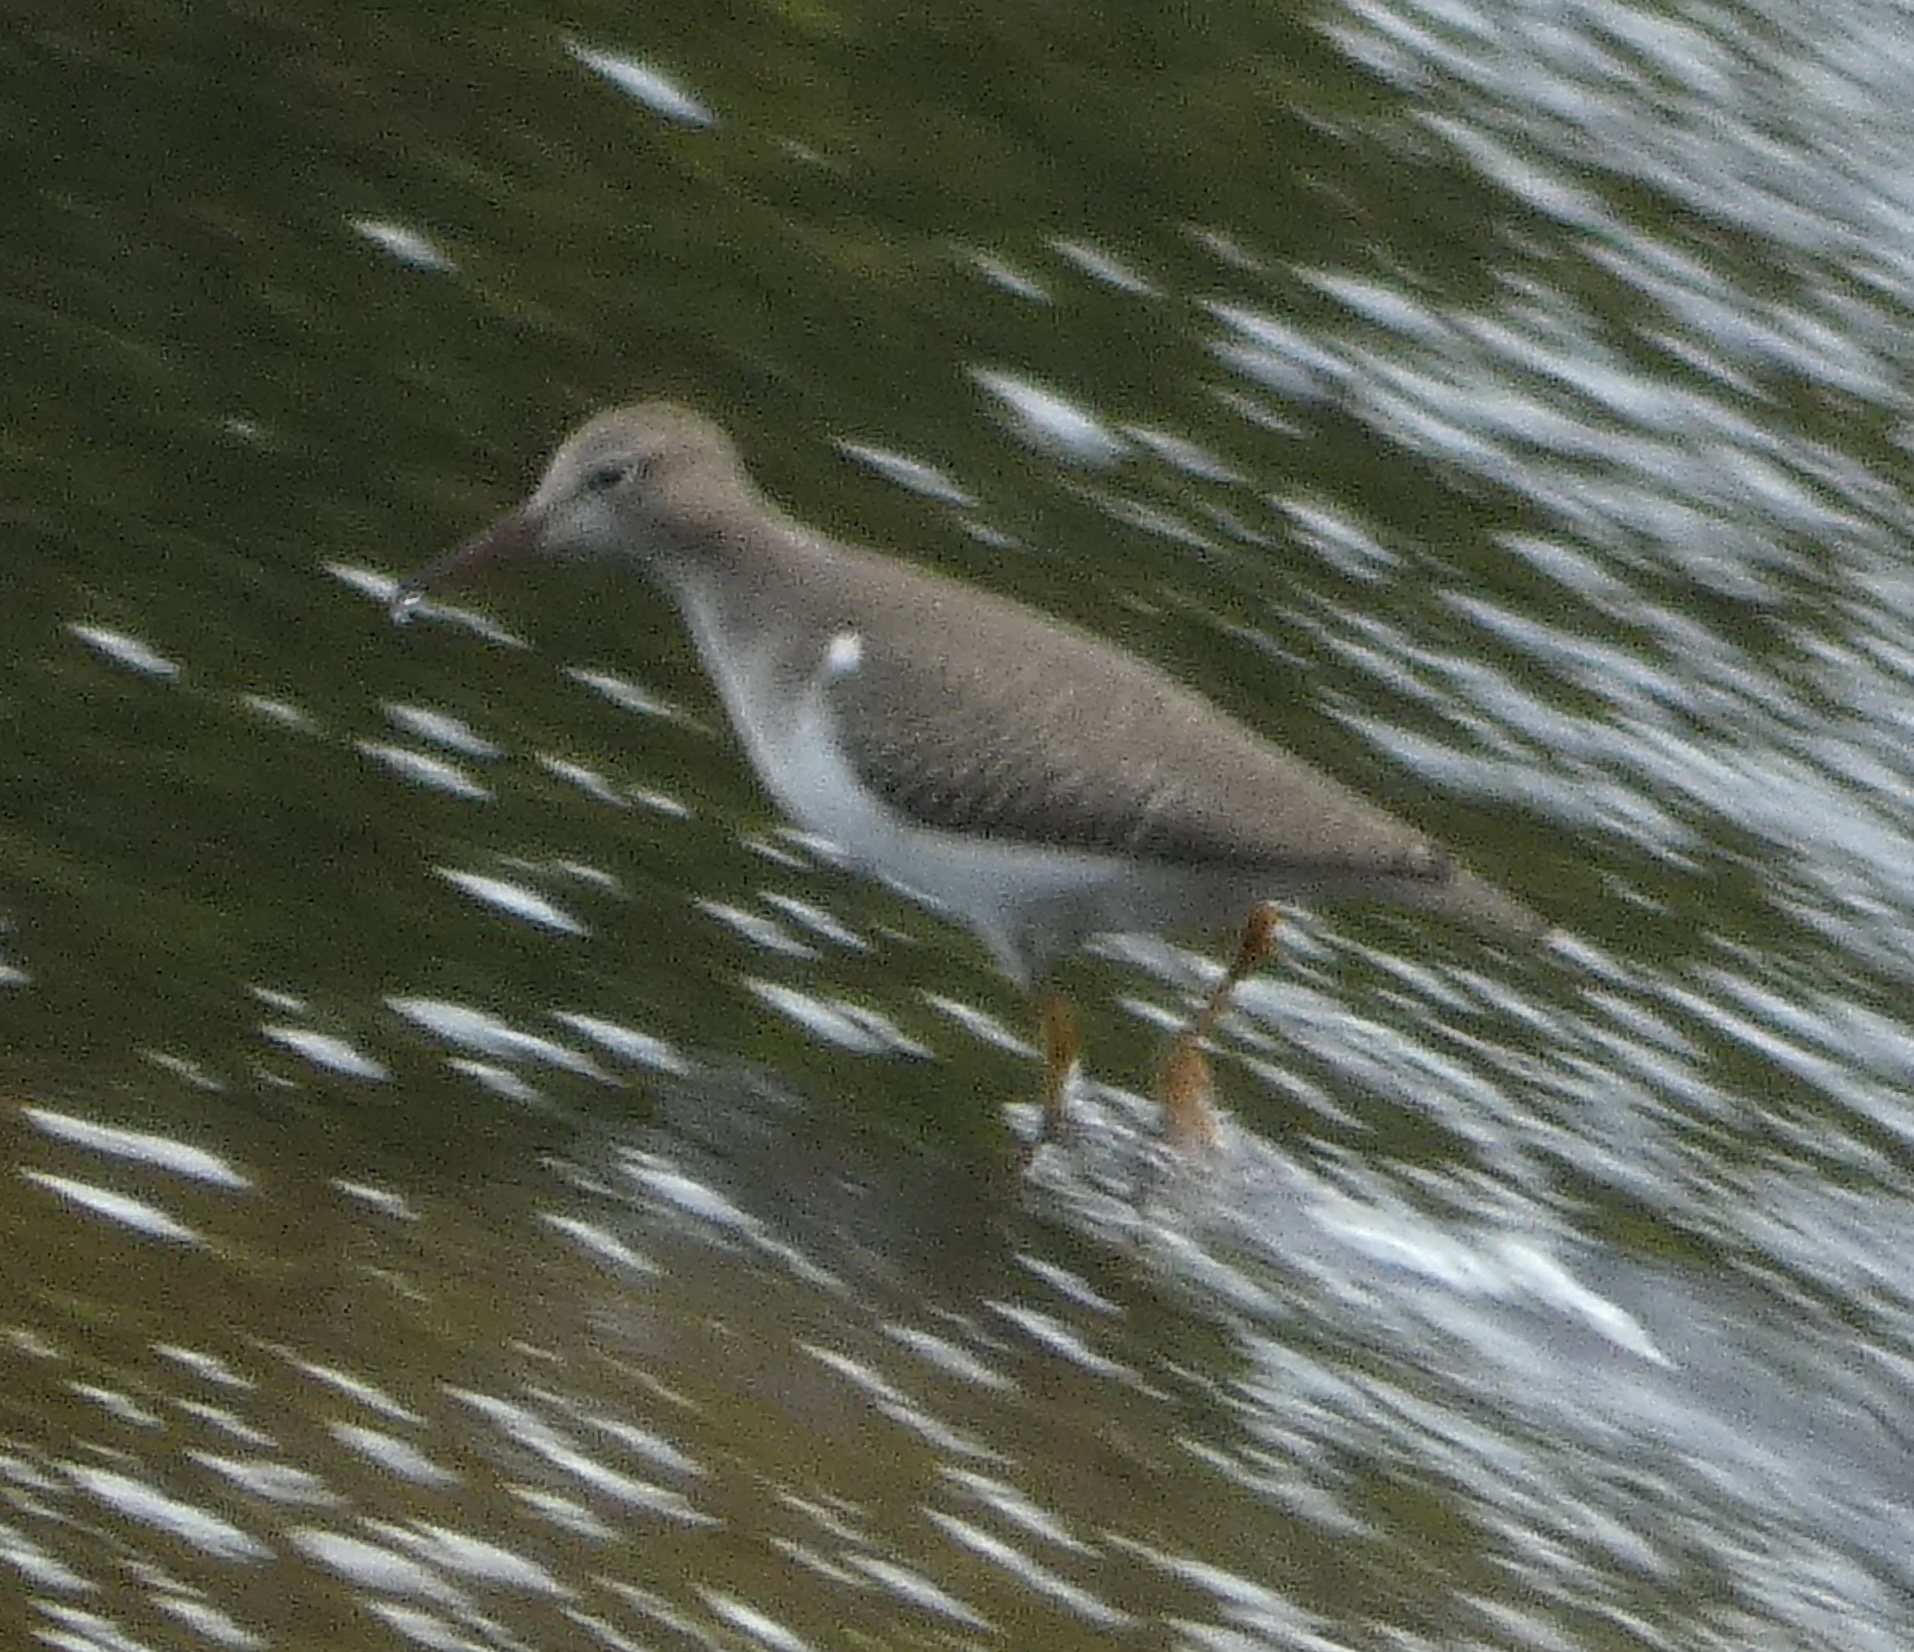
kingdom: Animalia
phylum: Chordata
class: Aves
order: Charadriiformes
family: Scolopacidae
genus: Actitis
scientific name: Actitis macularius
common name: Spotted sandpiper
